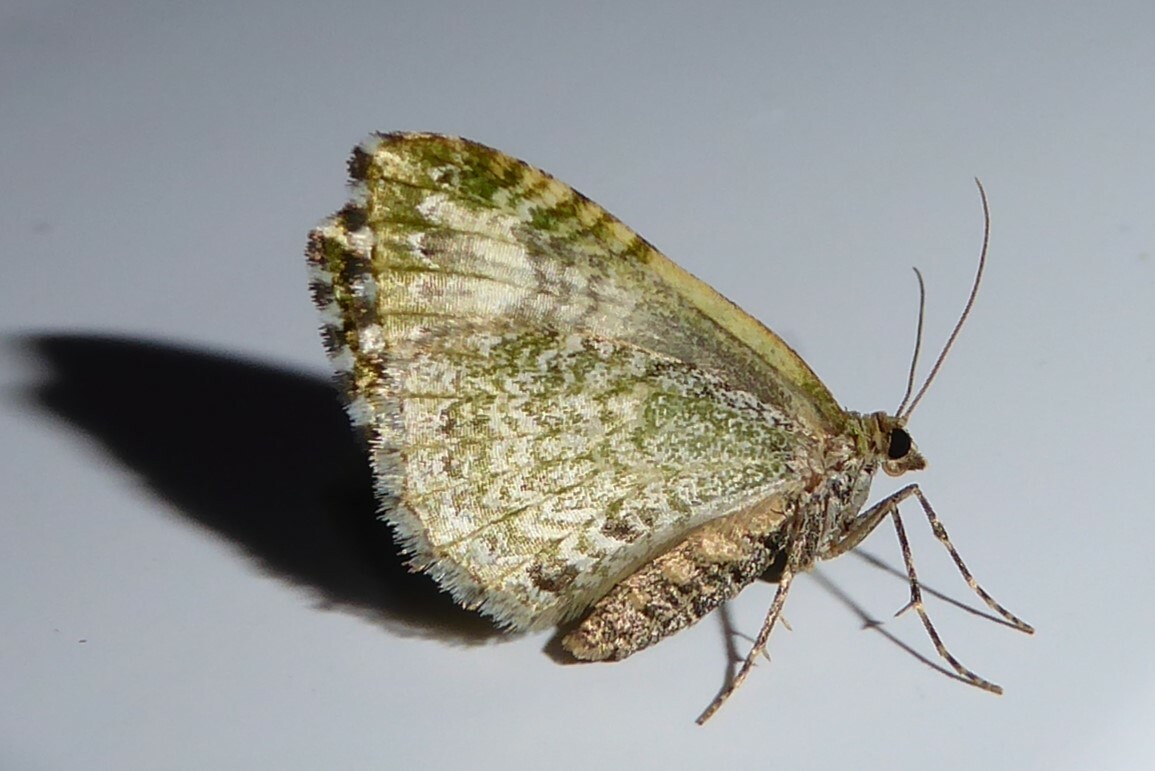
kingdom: Animalia
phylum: Arthropoda
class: Insecta
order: Lepidoptera
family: Geometridae
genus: Asaphodes
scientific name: Asaphodes beata
